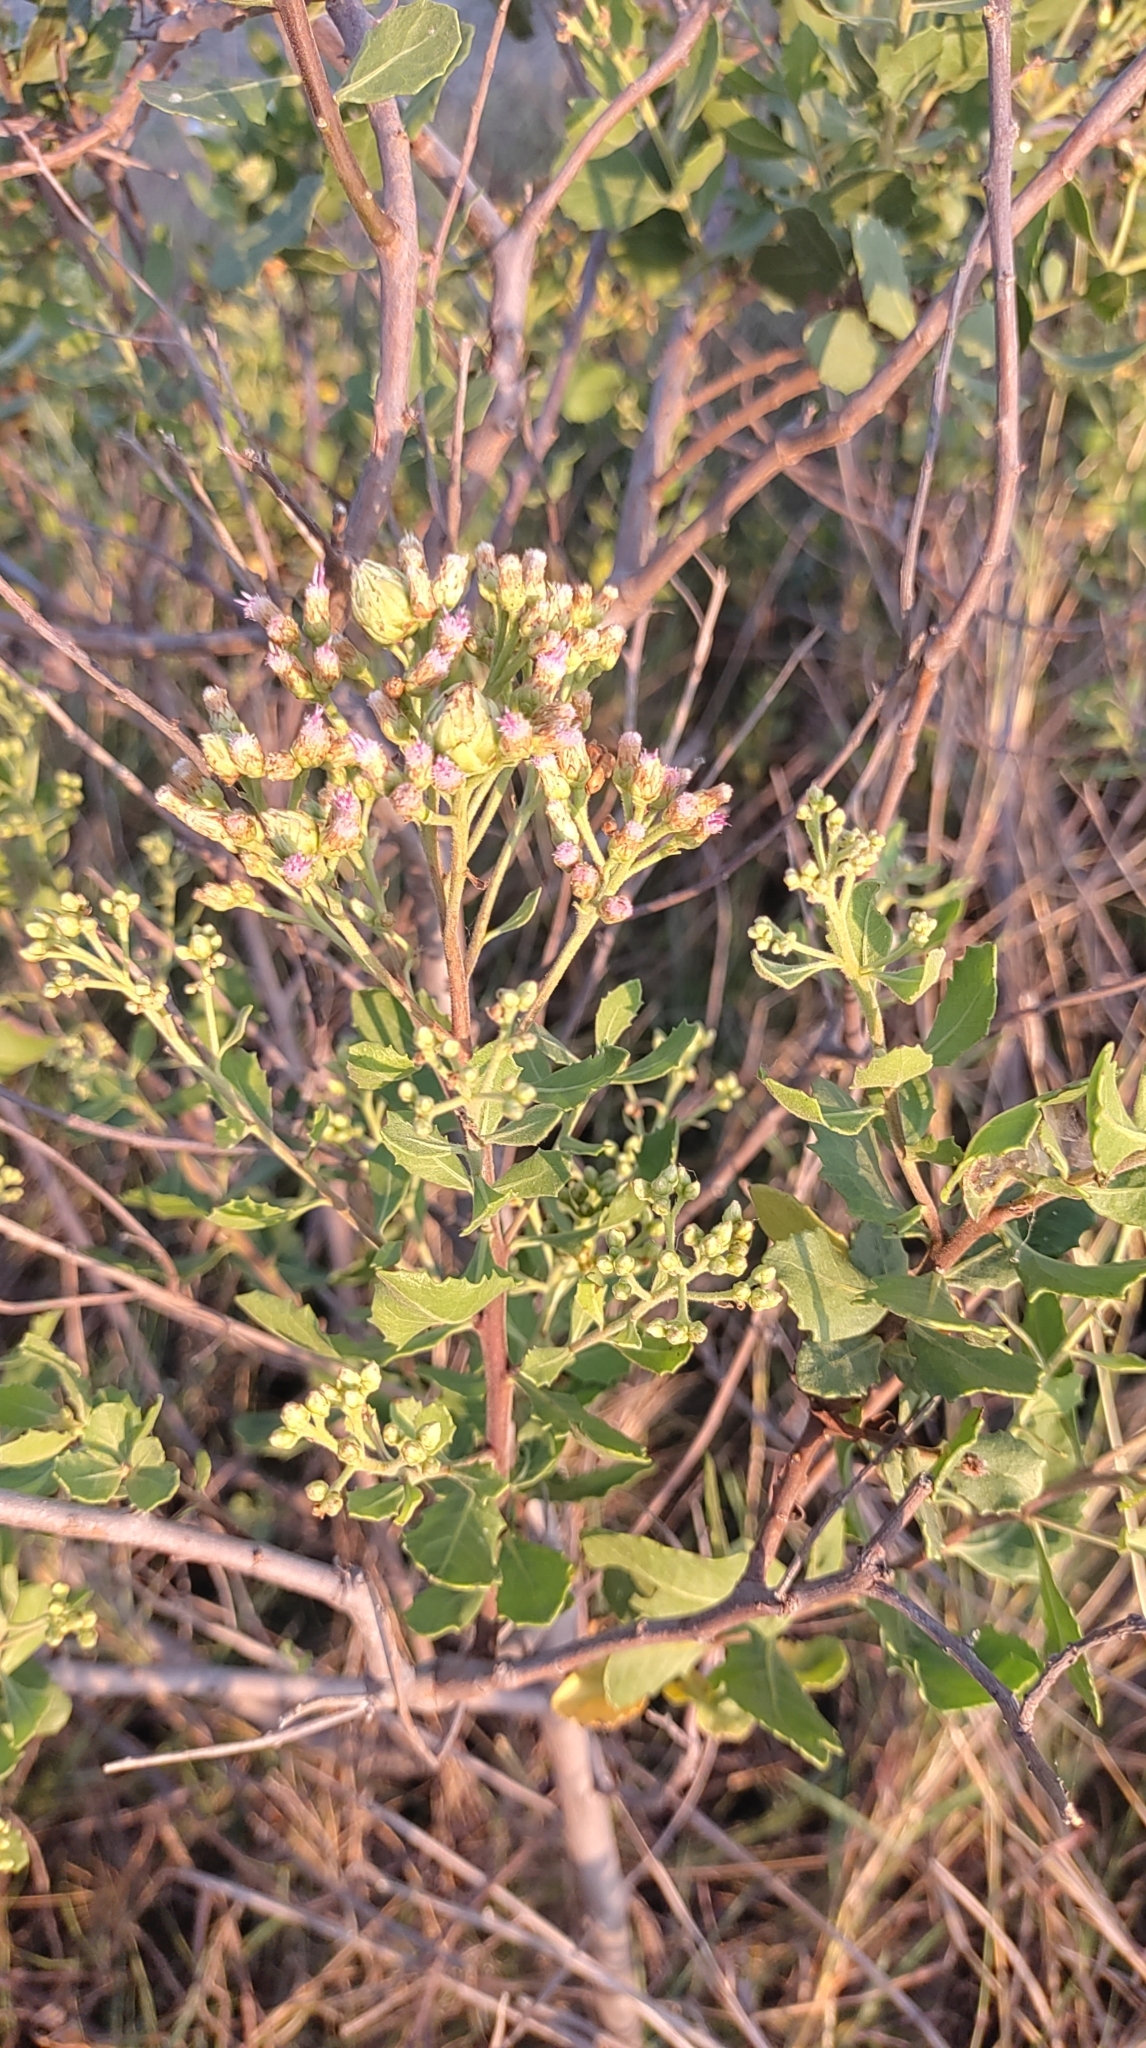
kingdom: Plantae
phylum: Tracheophyta
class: Magnoliopsida
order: Asterales
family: Asteraceae
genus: Pluchea
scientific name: Pluchea indica
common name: Indian fleabane
